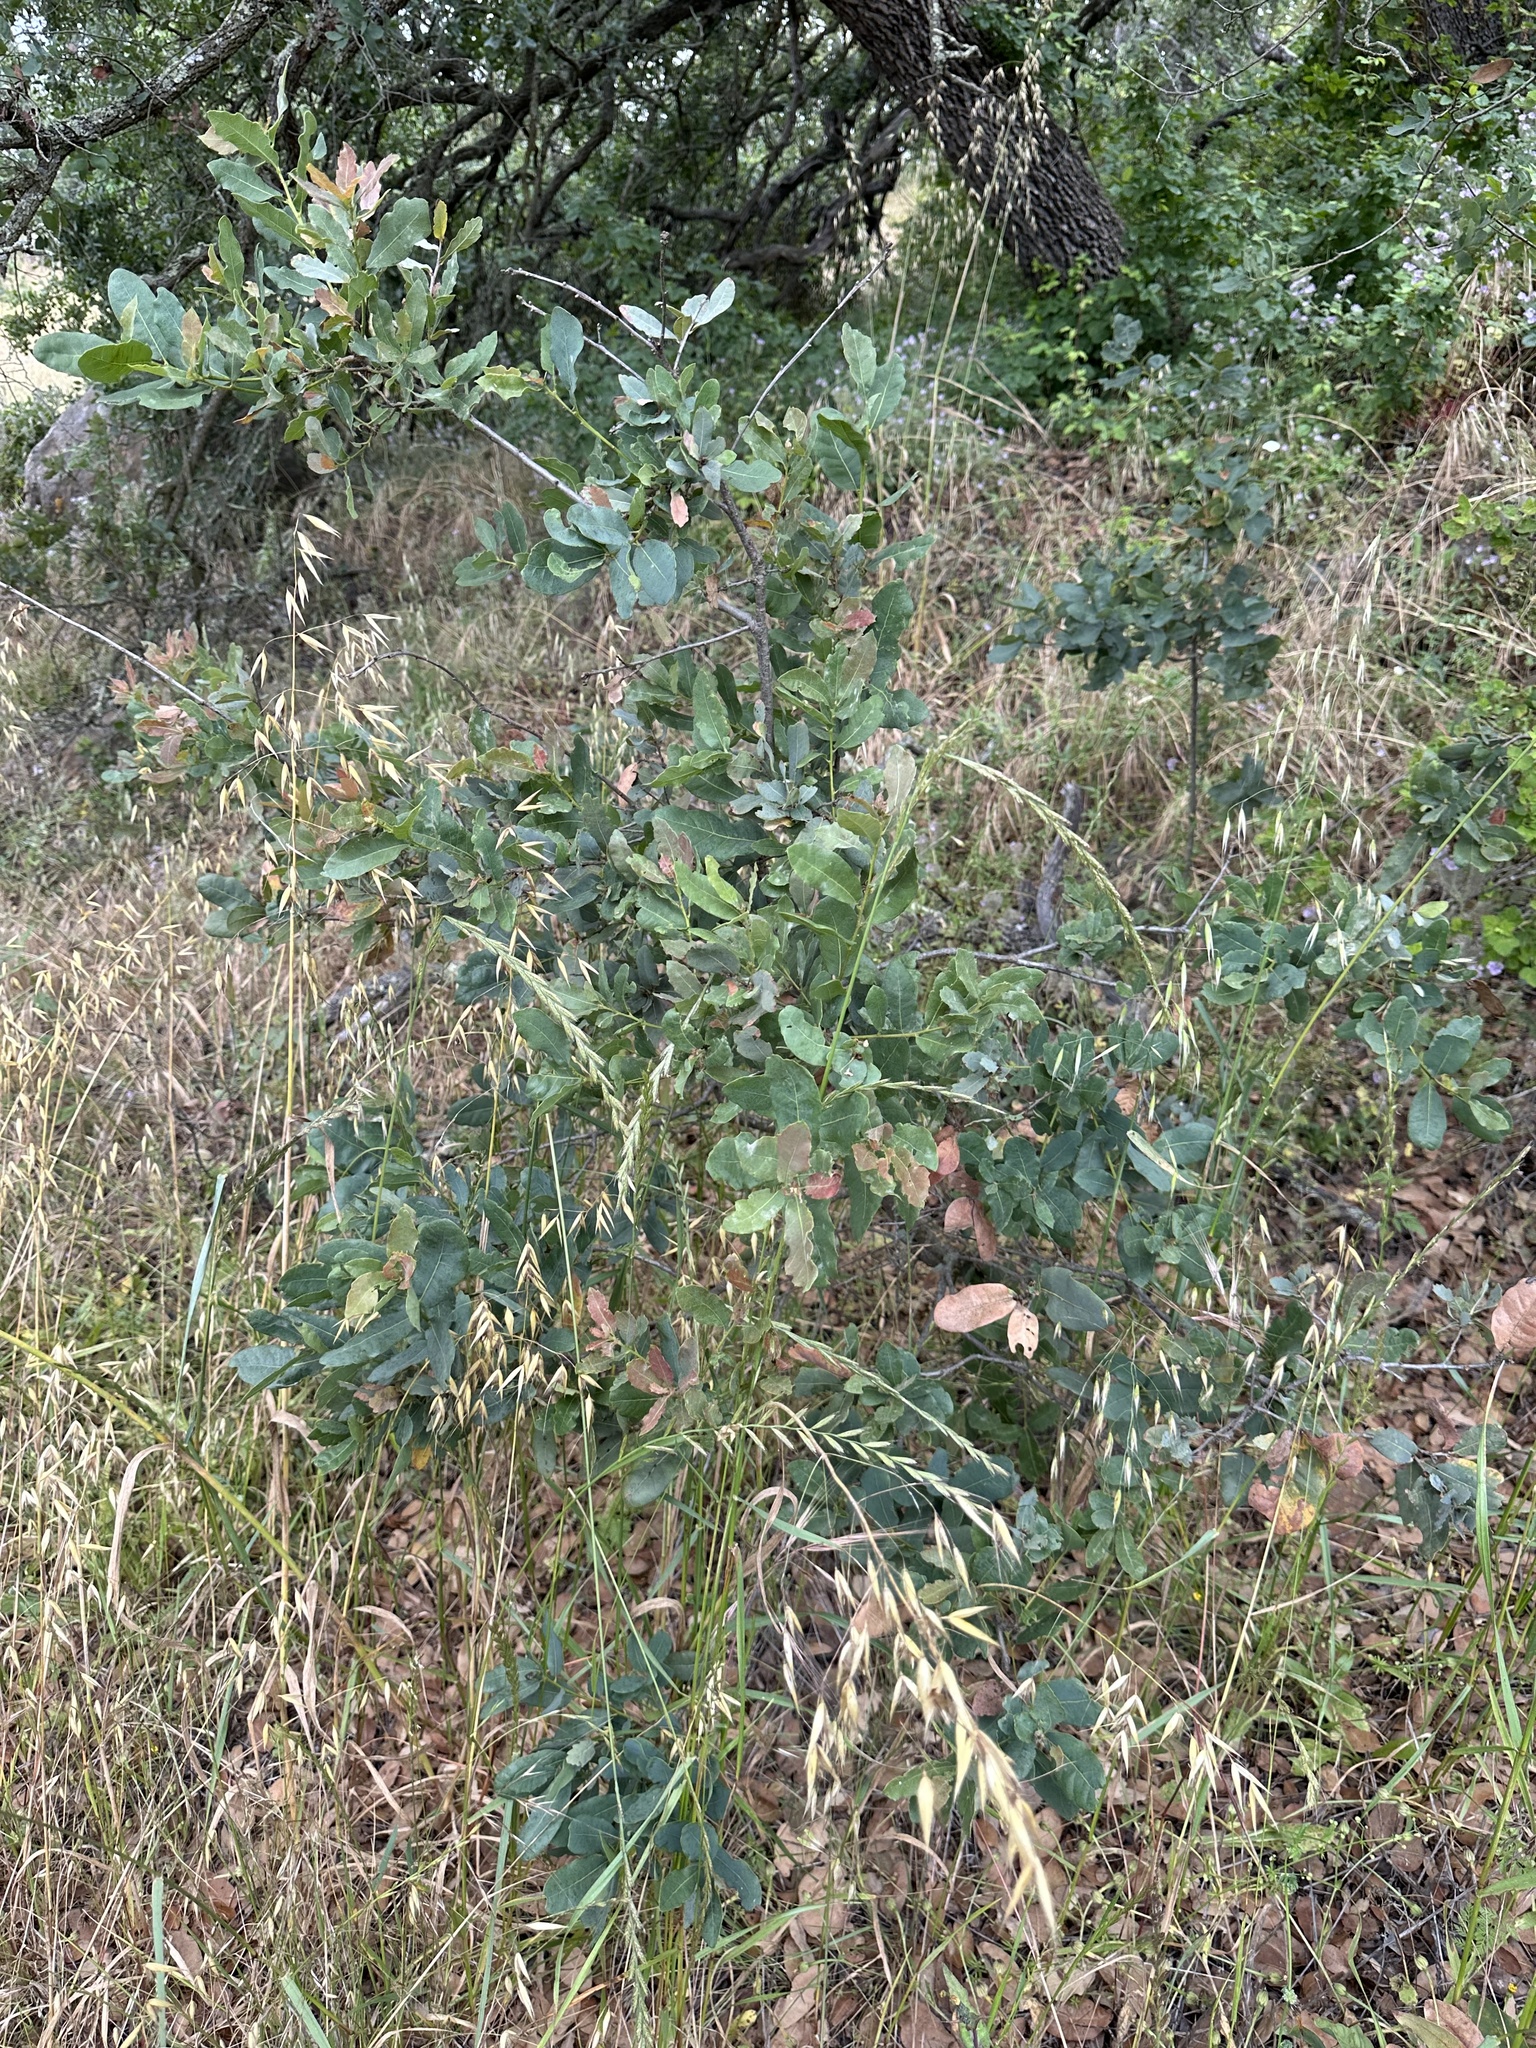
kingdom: Plantae
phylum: Tracheophyta
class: Magnoliopsida
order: Fagales
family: Fagaceae
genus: Quercus
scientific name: Quercus engelmannii
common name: Engelmann oak
